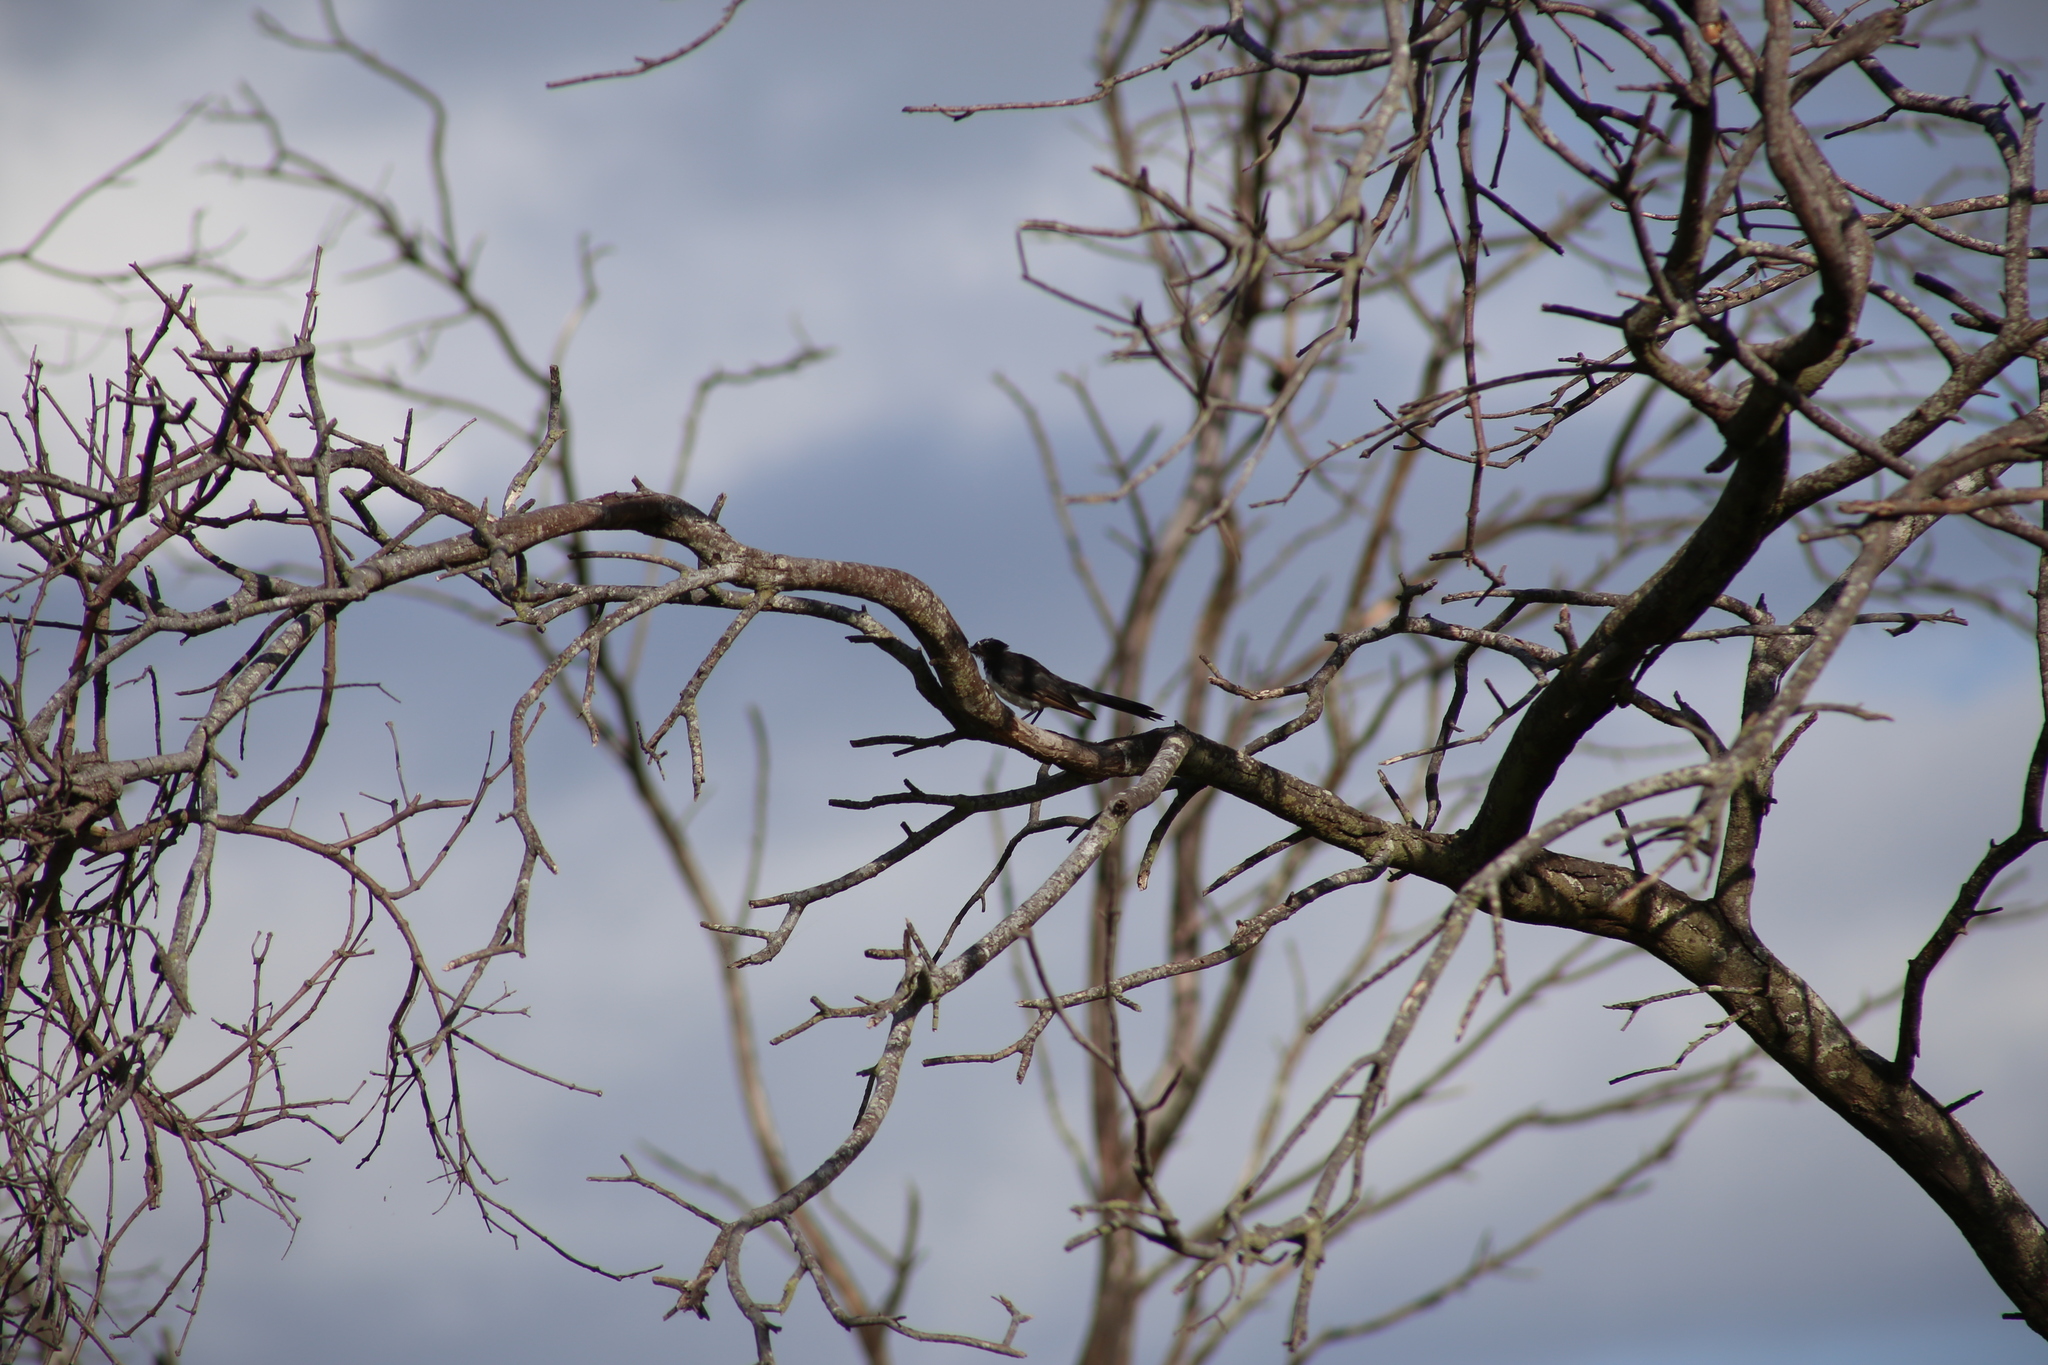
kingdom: Animalia
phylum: Chordata
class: Aves
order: Passeriformes
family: Rhipiduridae
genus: Rhipidura
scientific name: Rhipidura leucophrys
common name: Willie wagtail
